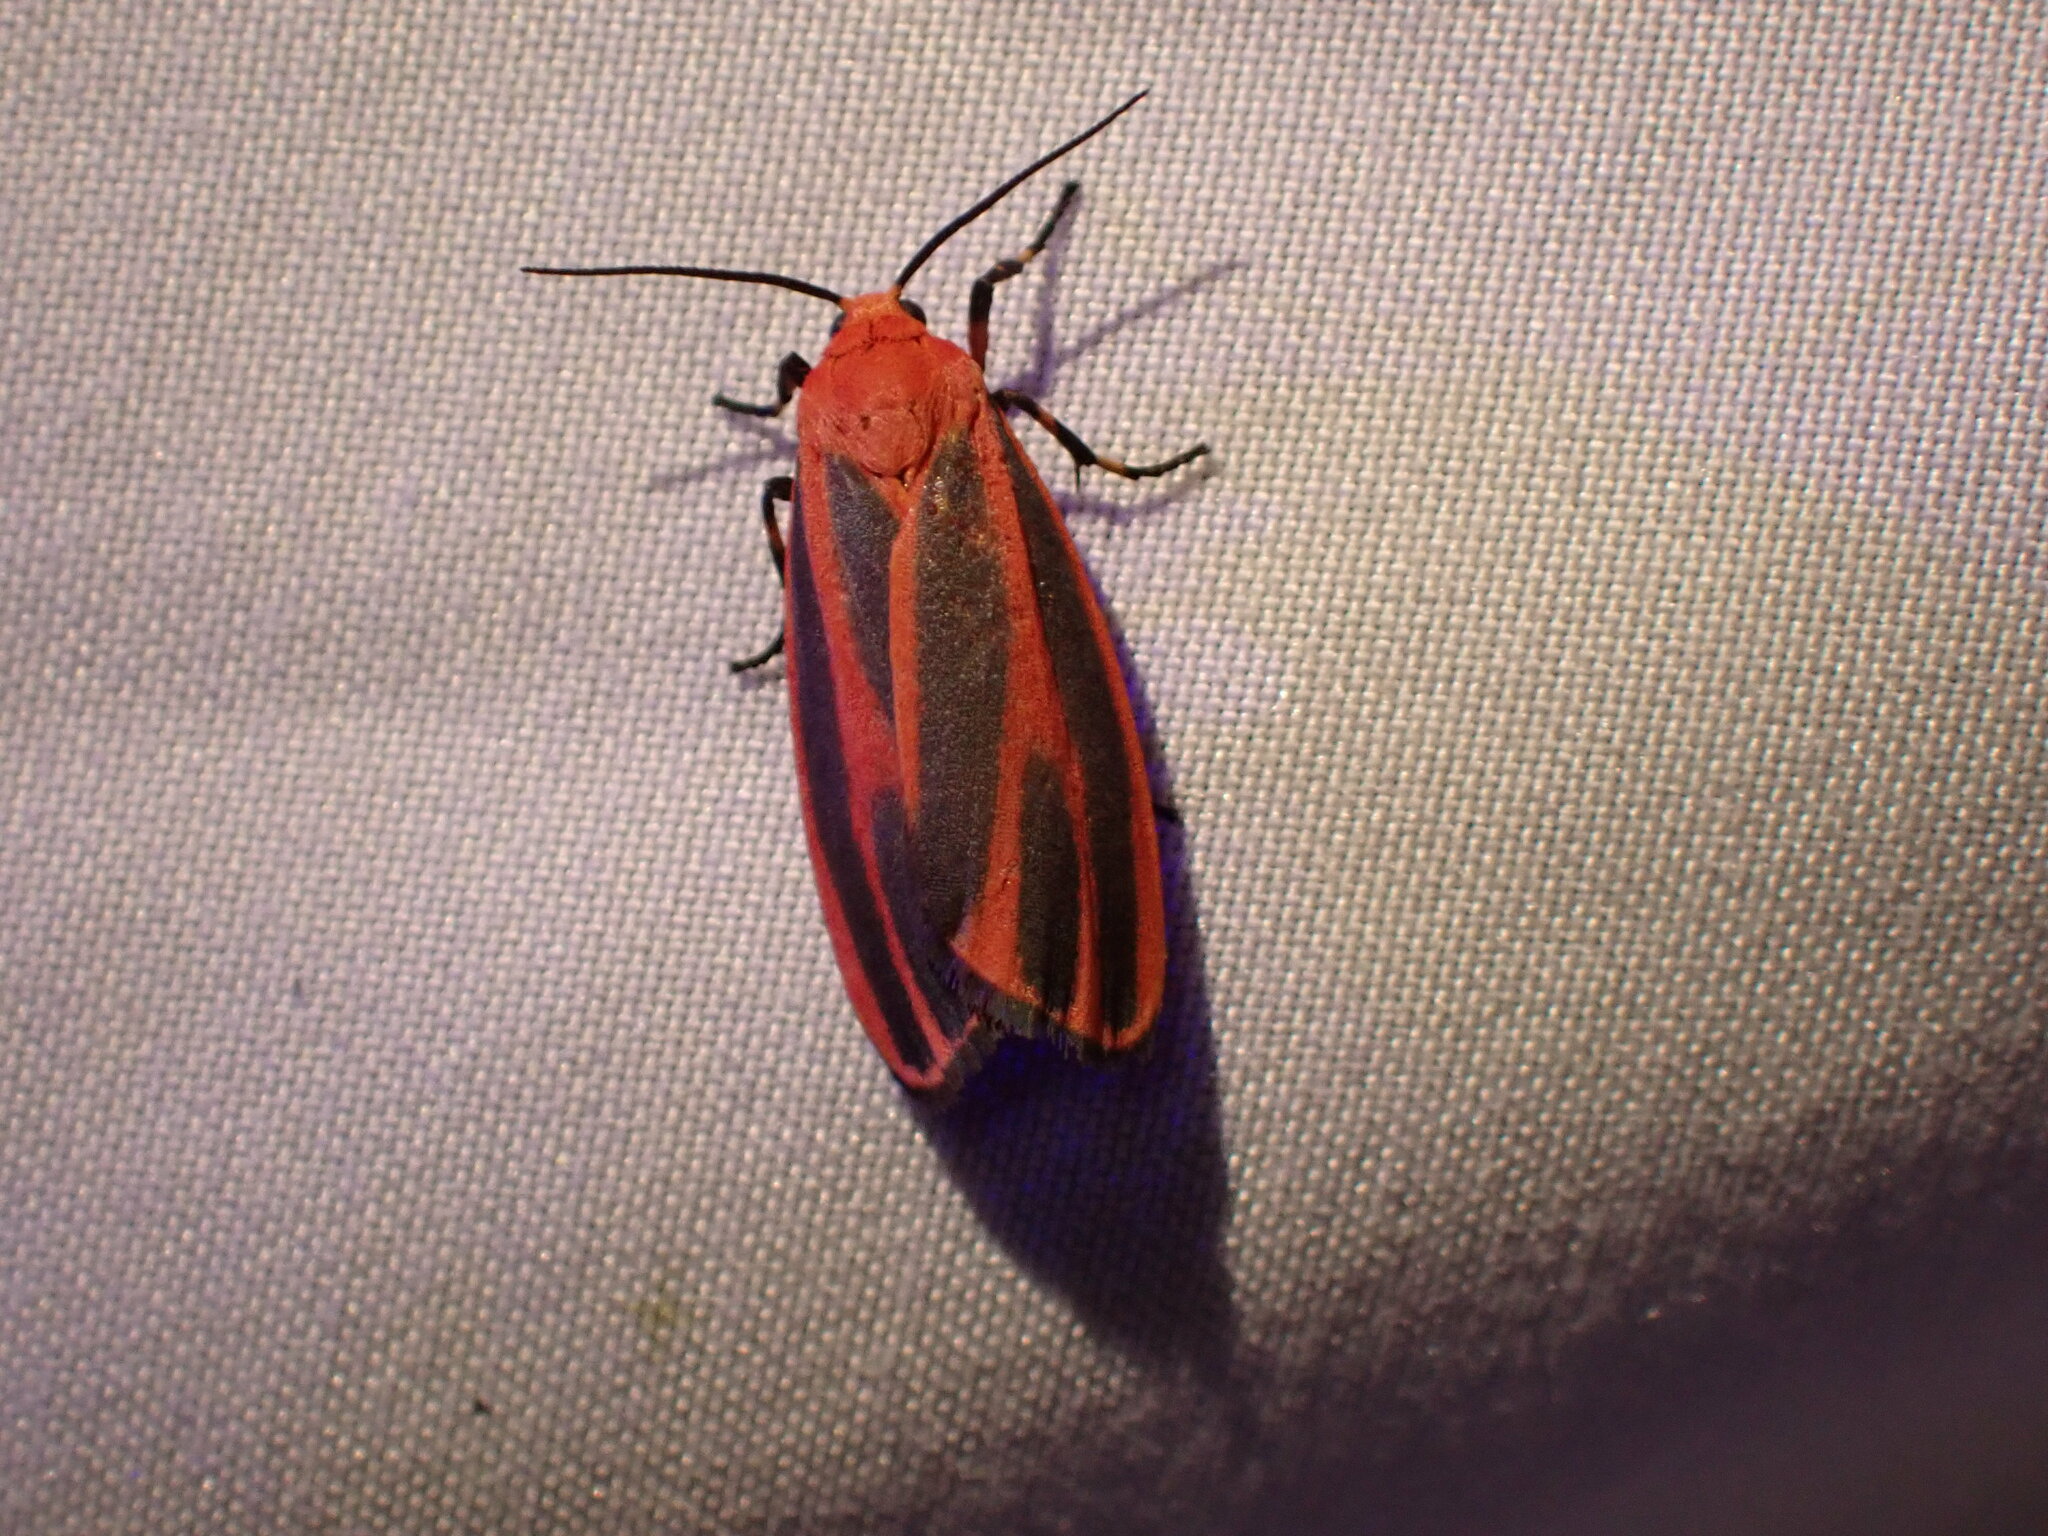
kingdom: Animalia
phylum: Arthropoda
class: Insecta
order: Lepidoptera
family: Erebidae
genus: Hypoprepia
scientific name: Hypoprepia miniata
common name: Scarlet-winged lichen moth
